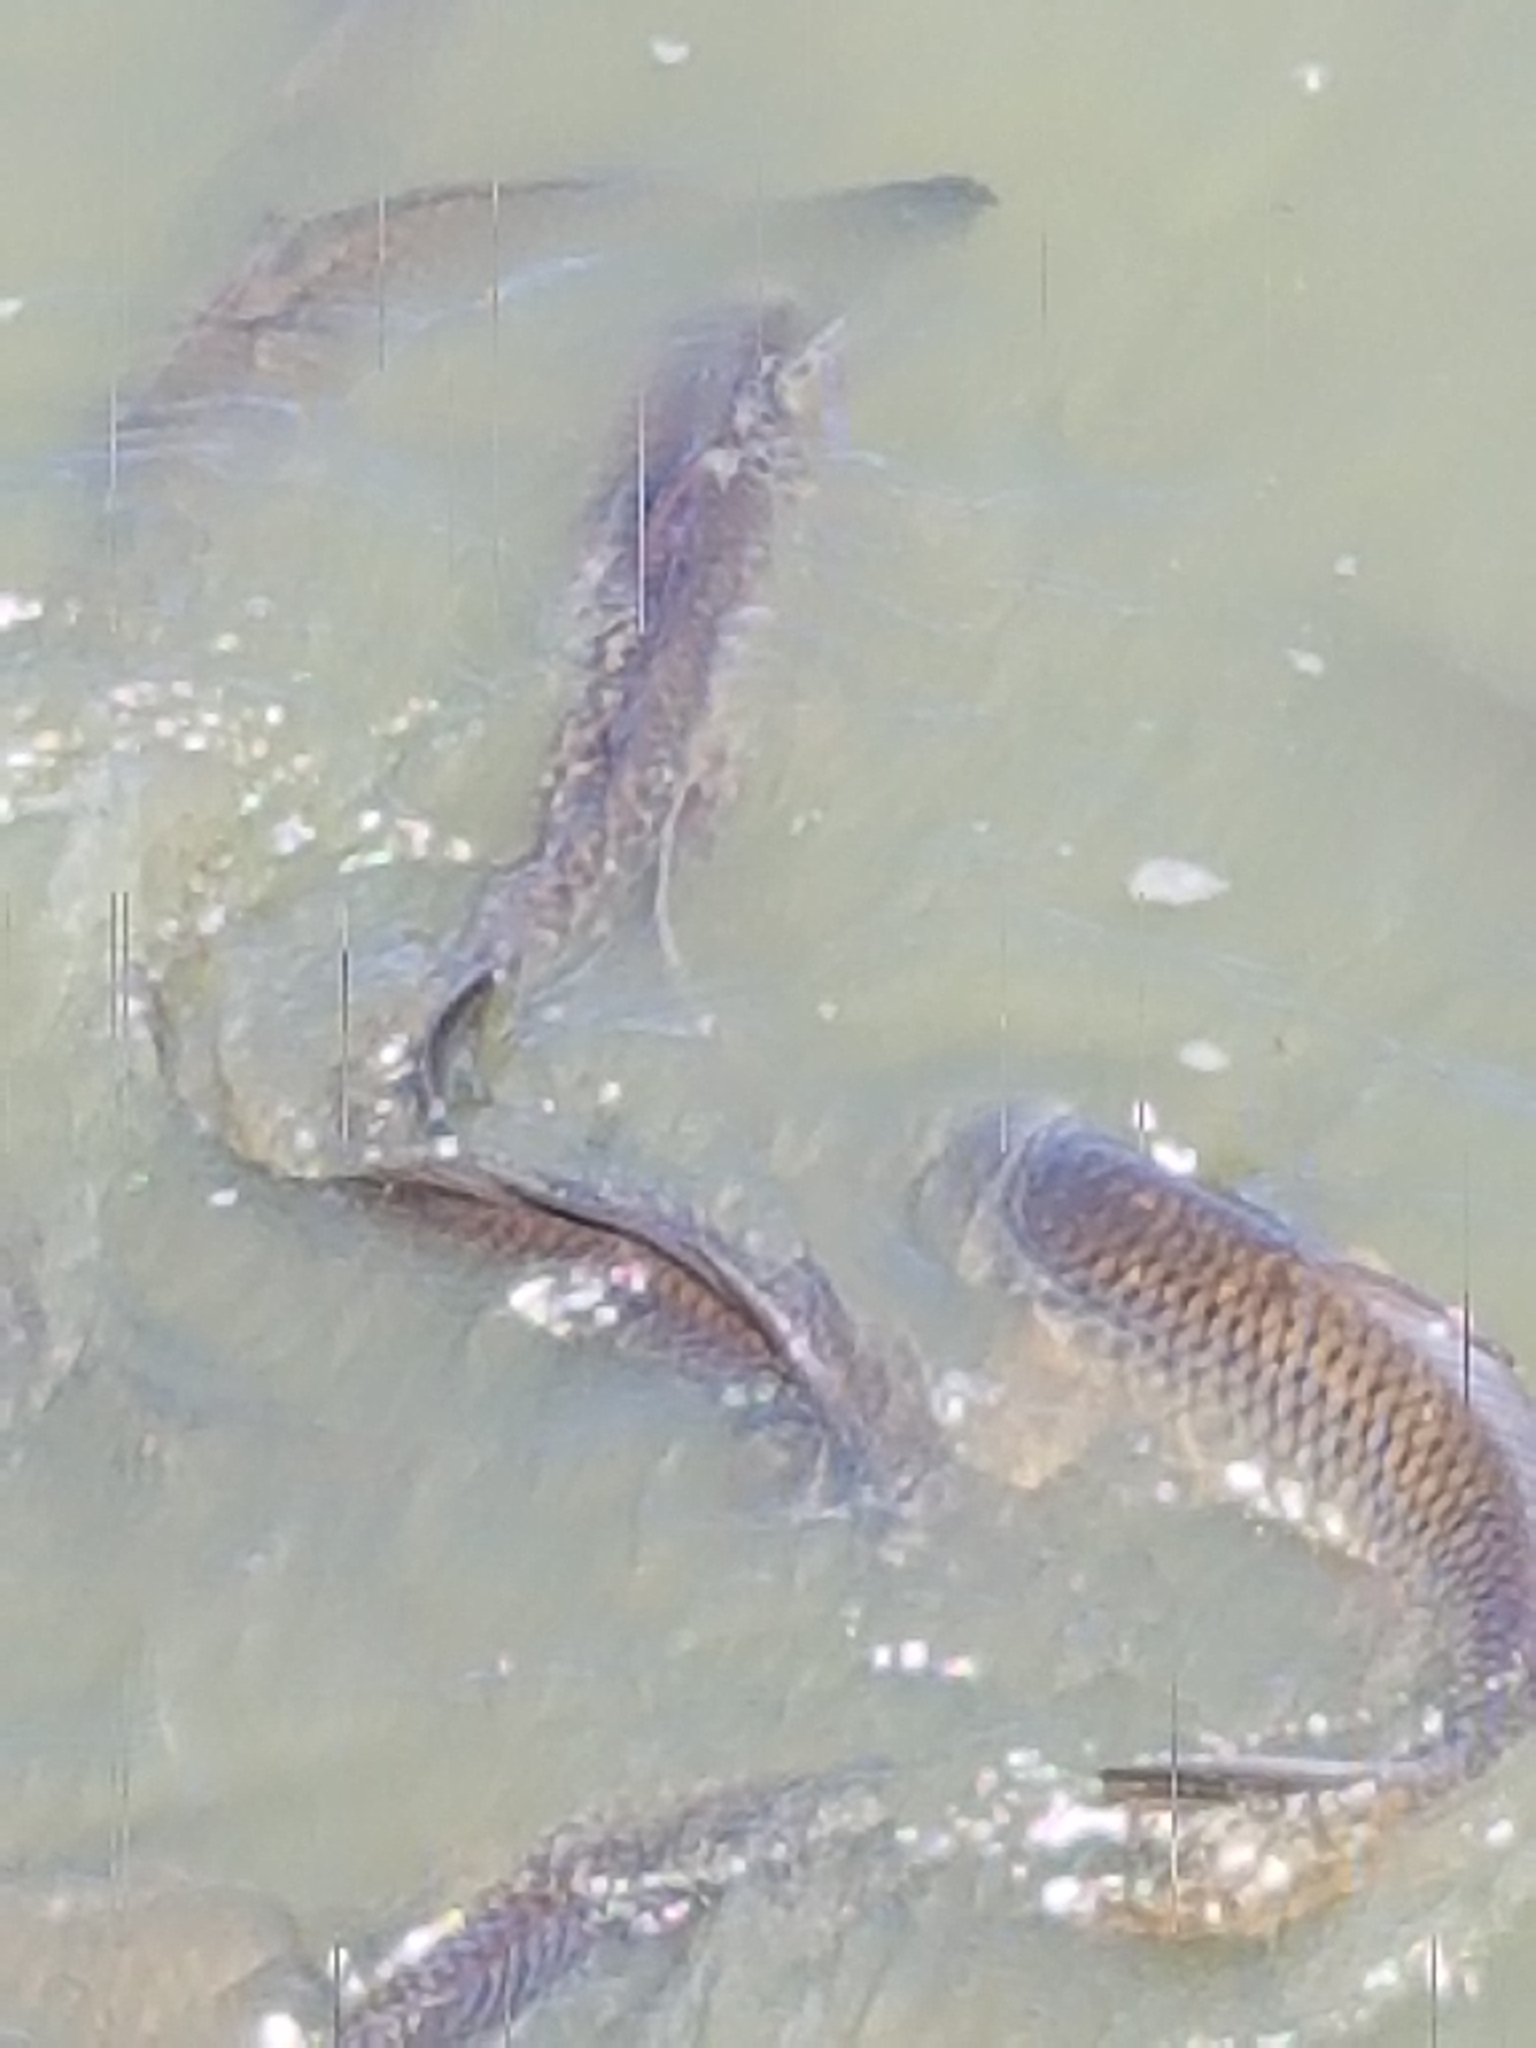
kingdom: Animalia
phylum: Chordata
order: Cypriniformes
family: Cyprinidae
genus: Cyprinus
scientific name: Cyprinus carpio
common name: Common carp
